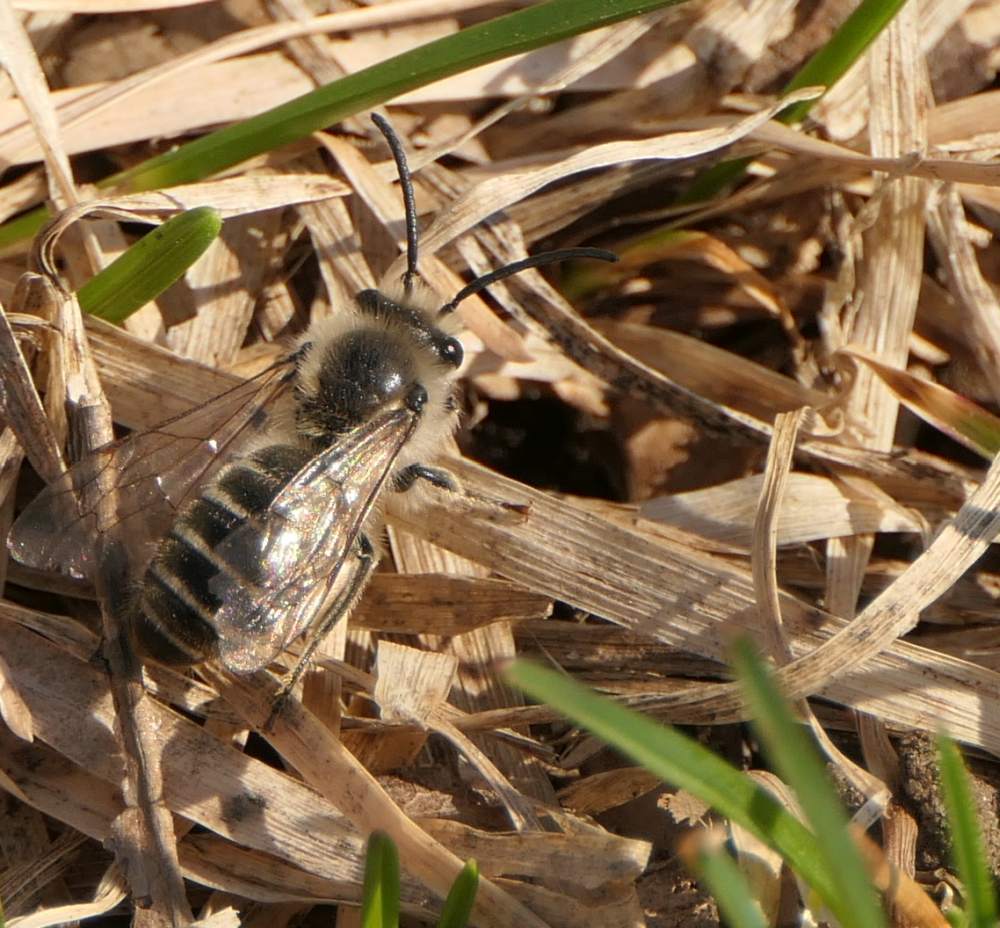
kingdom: Animalia
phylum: Arthropoda
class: Insecta
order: Hymenoptera
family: Colletidae
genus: Colletes
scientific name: Colletes inaequalis
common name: Unequal cellophane bee
